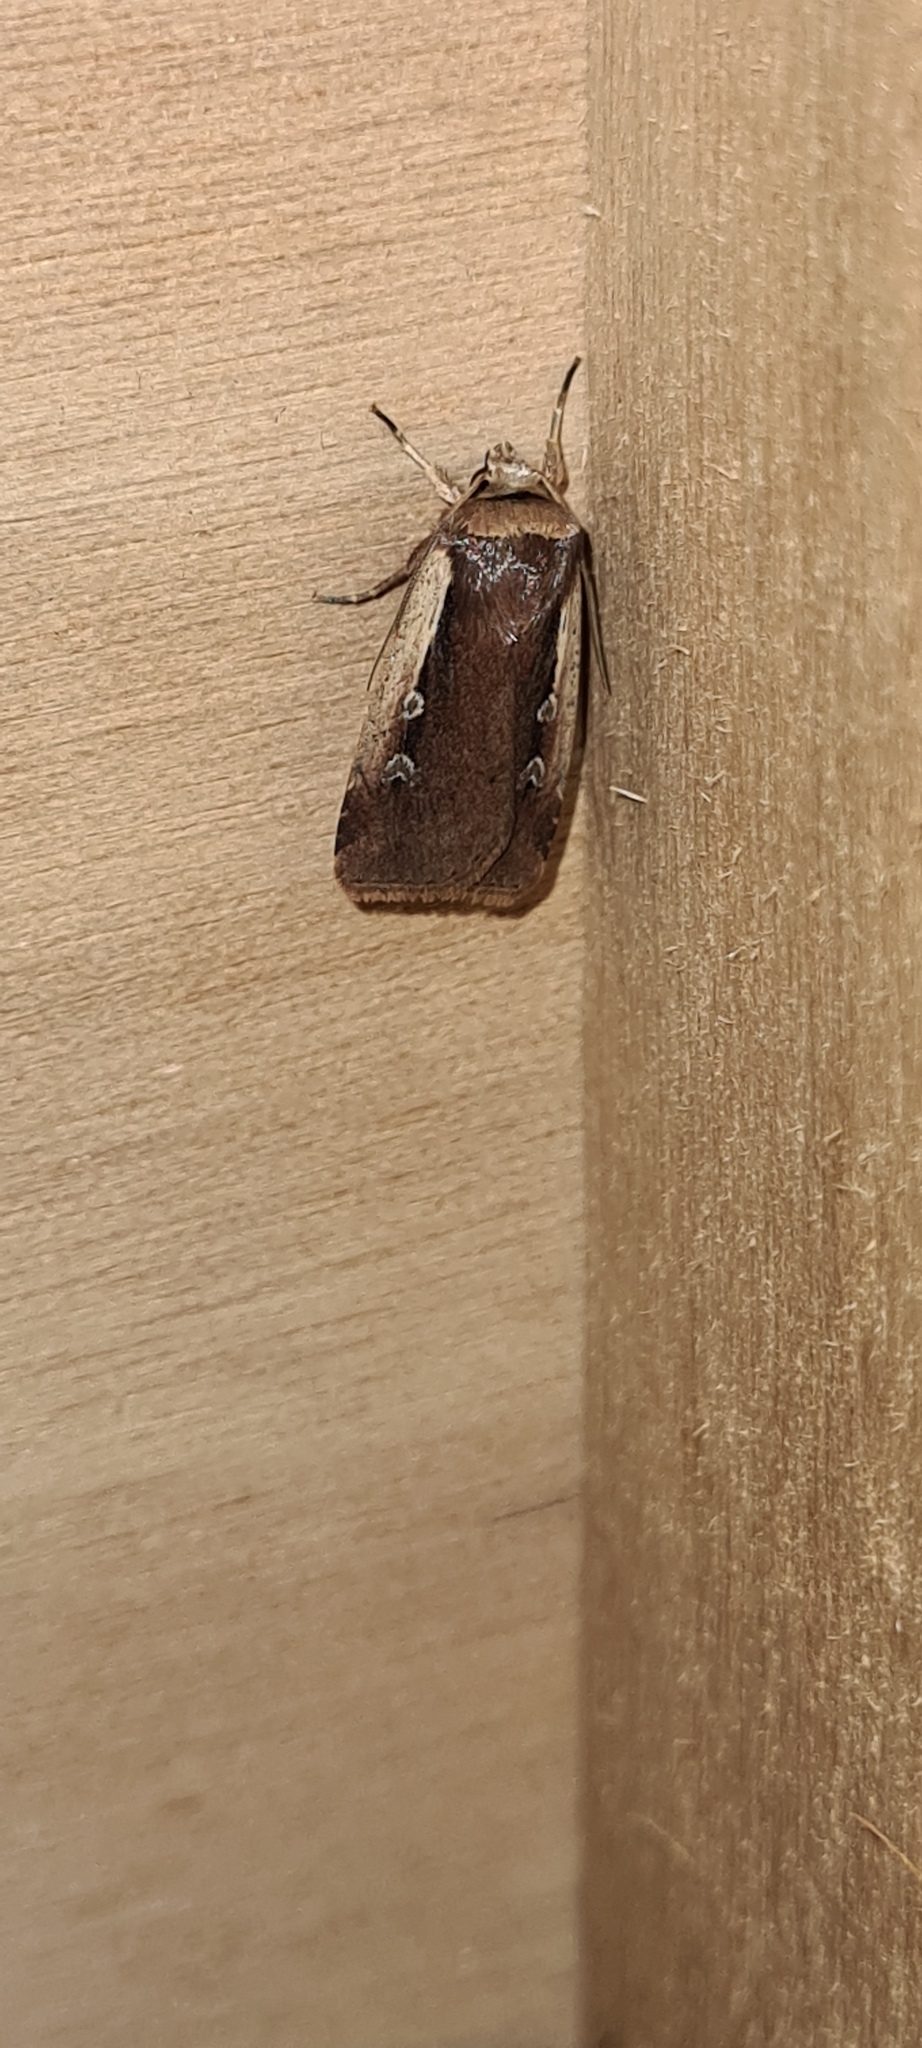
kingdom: Animalia
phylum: Arthropoda
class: Insecta
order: Lepidoptera
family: Noctuidae
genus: Ochropleura
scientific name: Ochropleura plecta
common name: Flame shoulder
